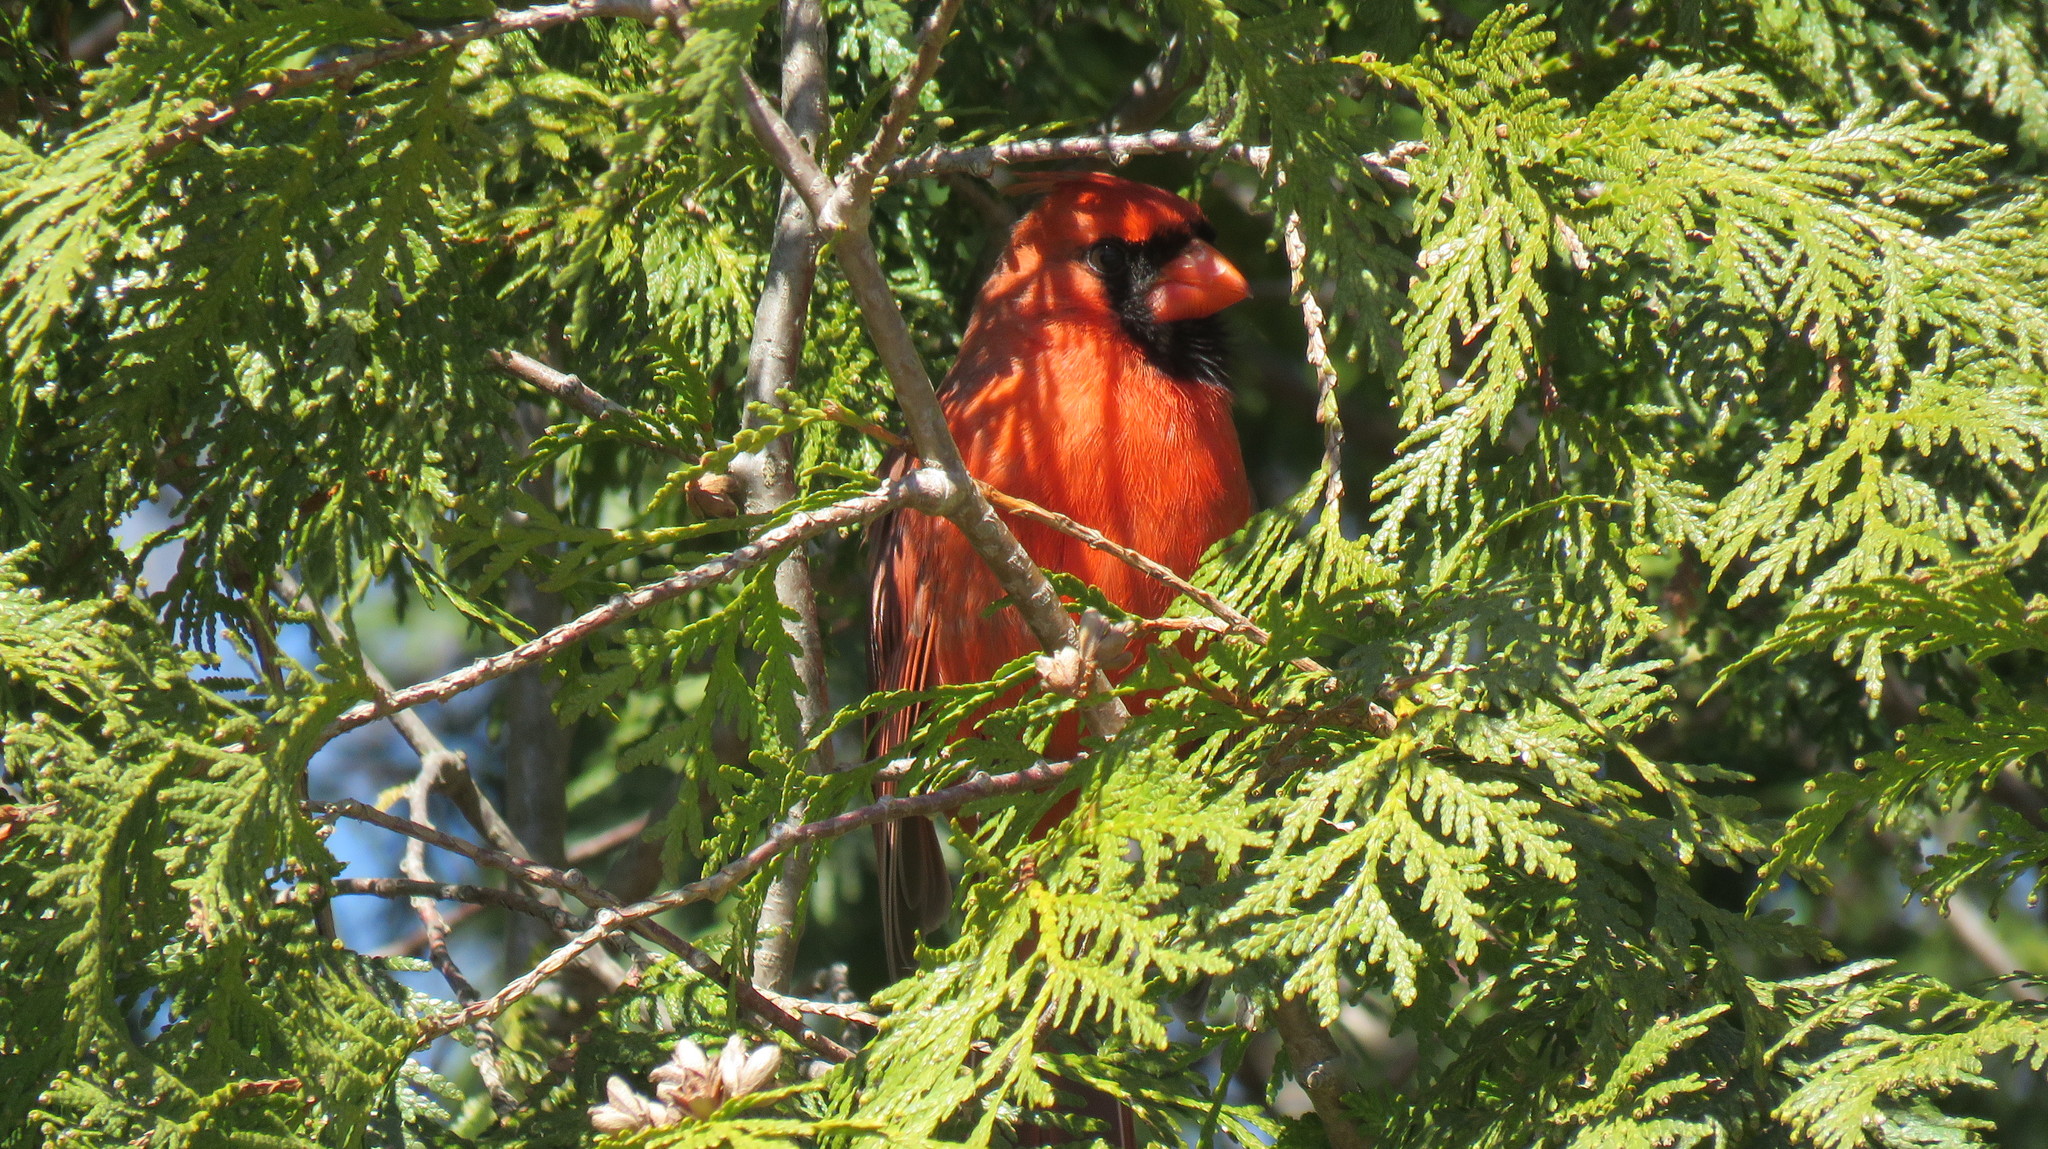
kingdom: Animalia
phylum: Chordata
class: Aves
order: Passeriformes
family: Cardinalidae
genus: Cardinalis
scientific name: Cardinalis cardinalis
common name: Northern cardinal
